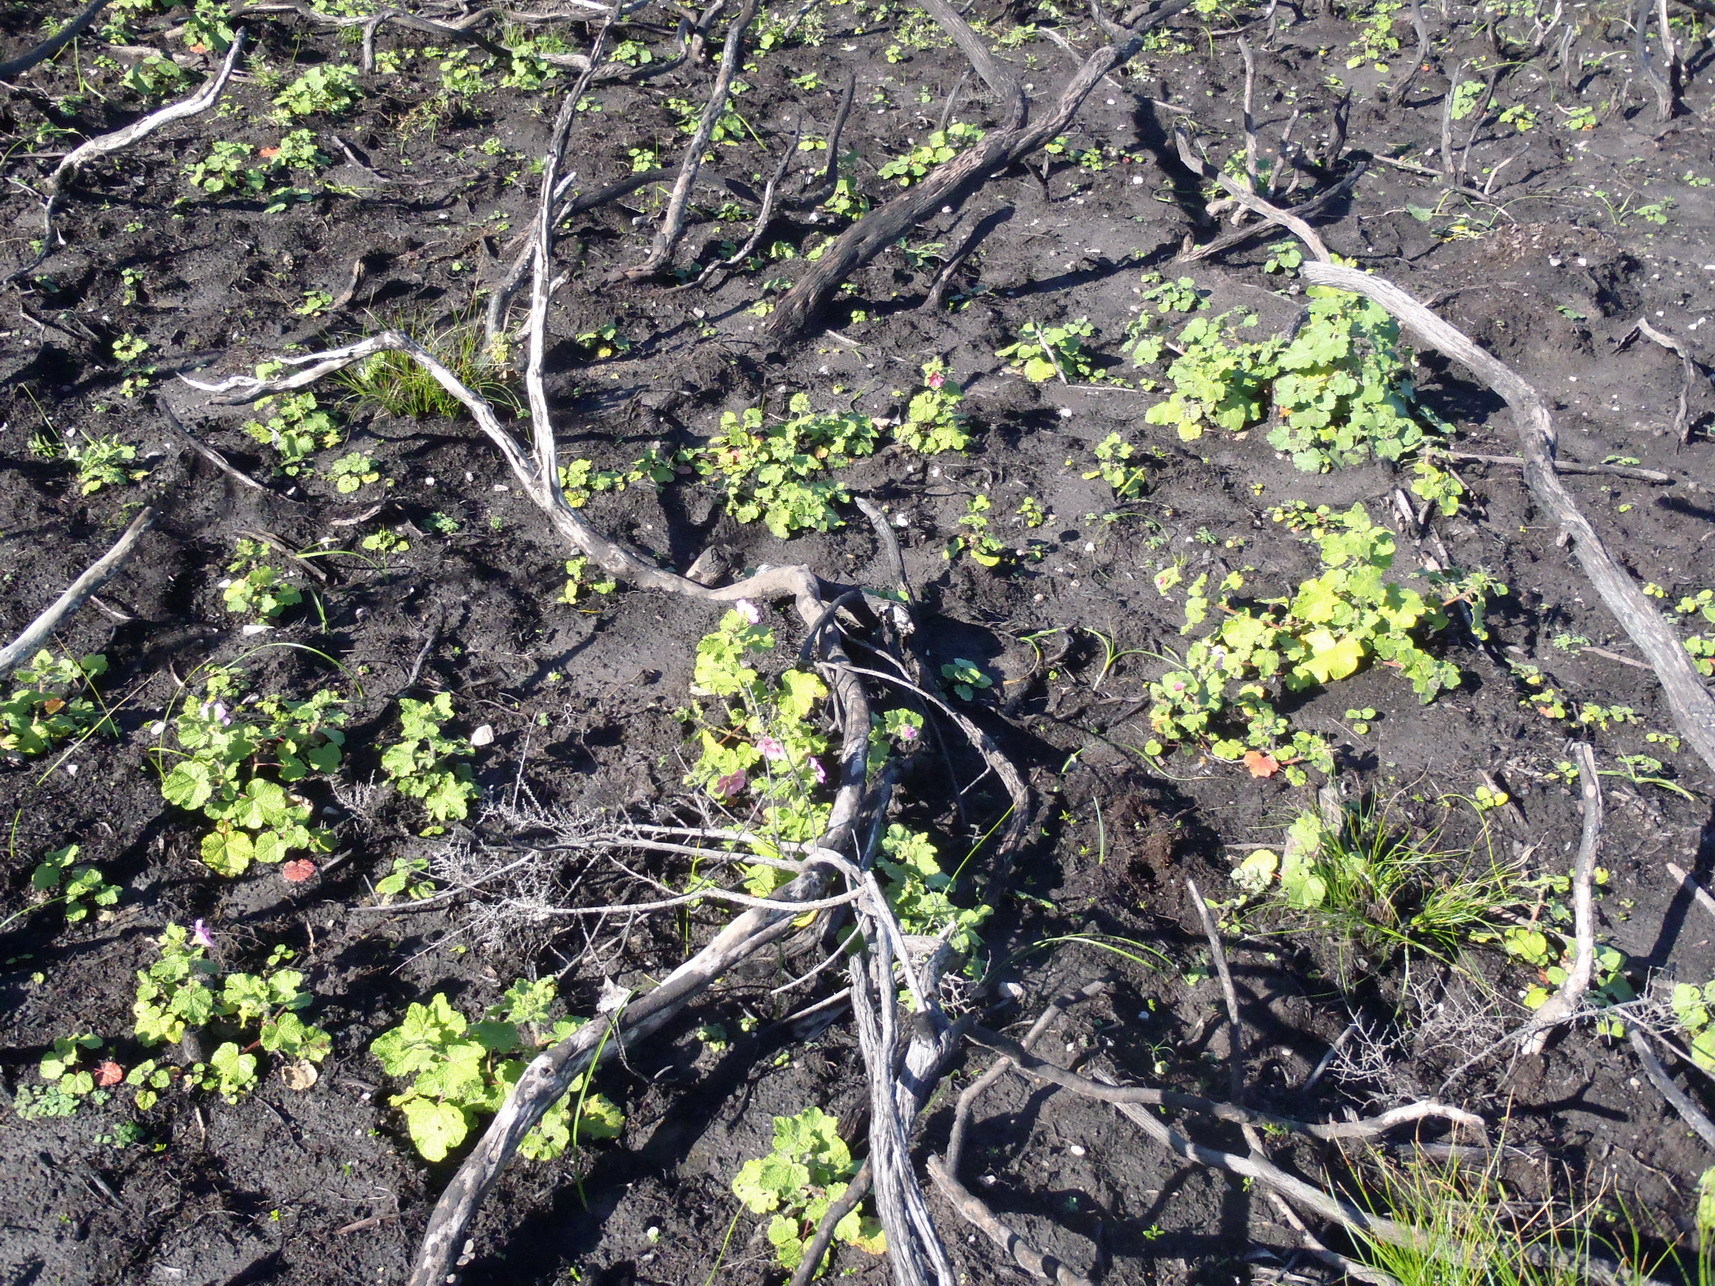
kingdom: Plantae
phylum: Tracheophyta
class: Magnoliopsida
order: Malvales
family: Malvaceae
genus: Anisodontea
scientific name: Anisodontea scabrosa
